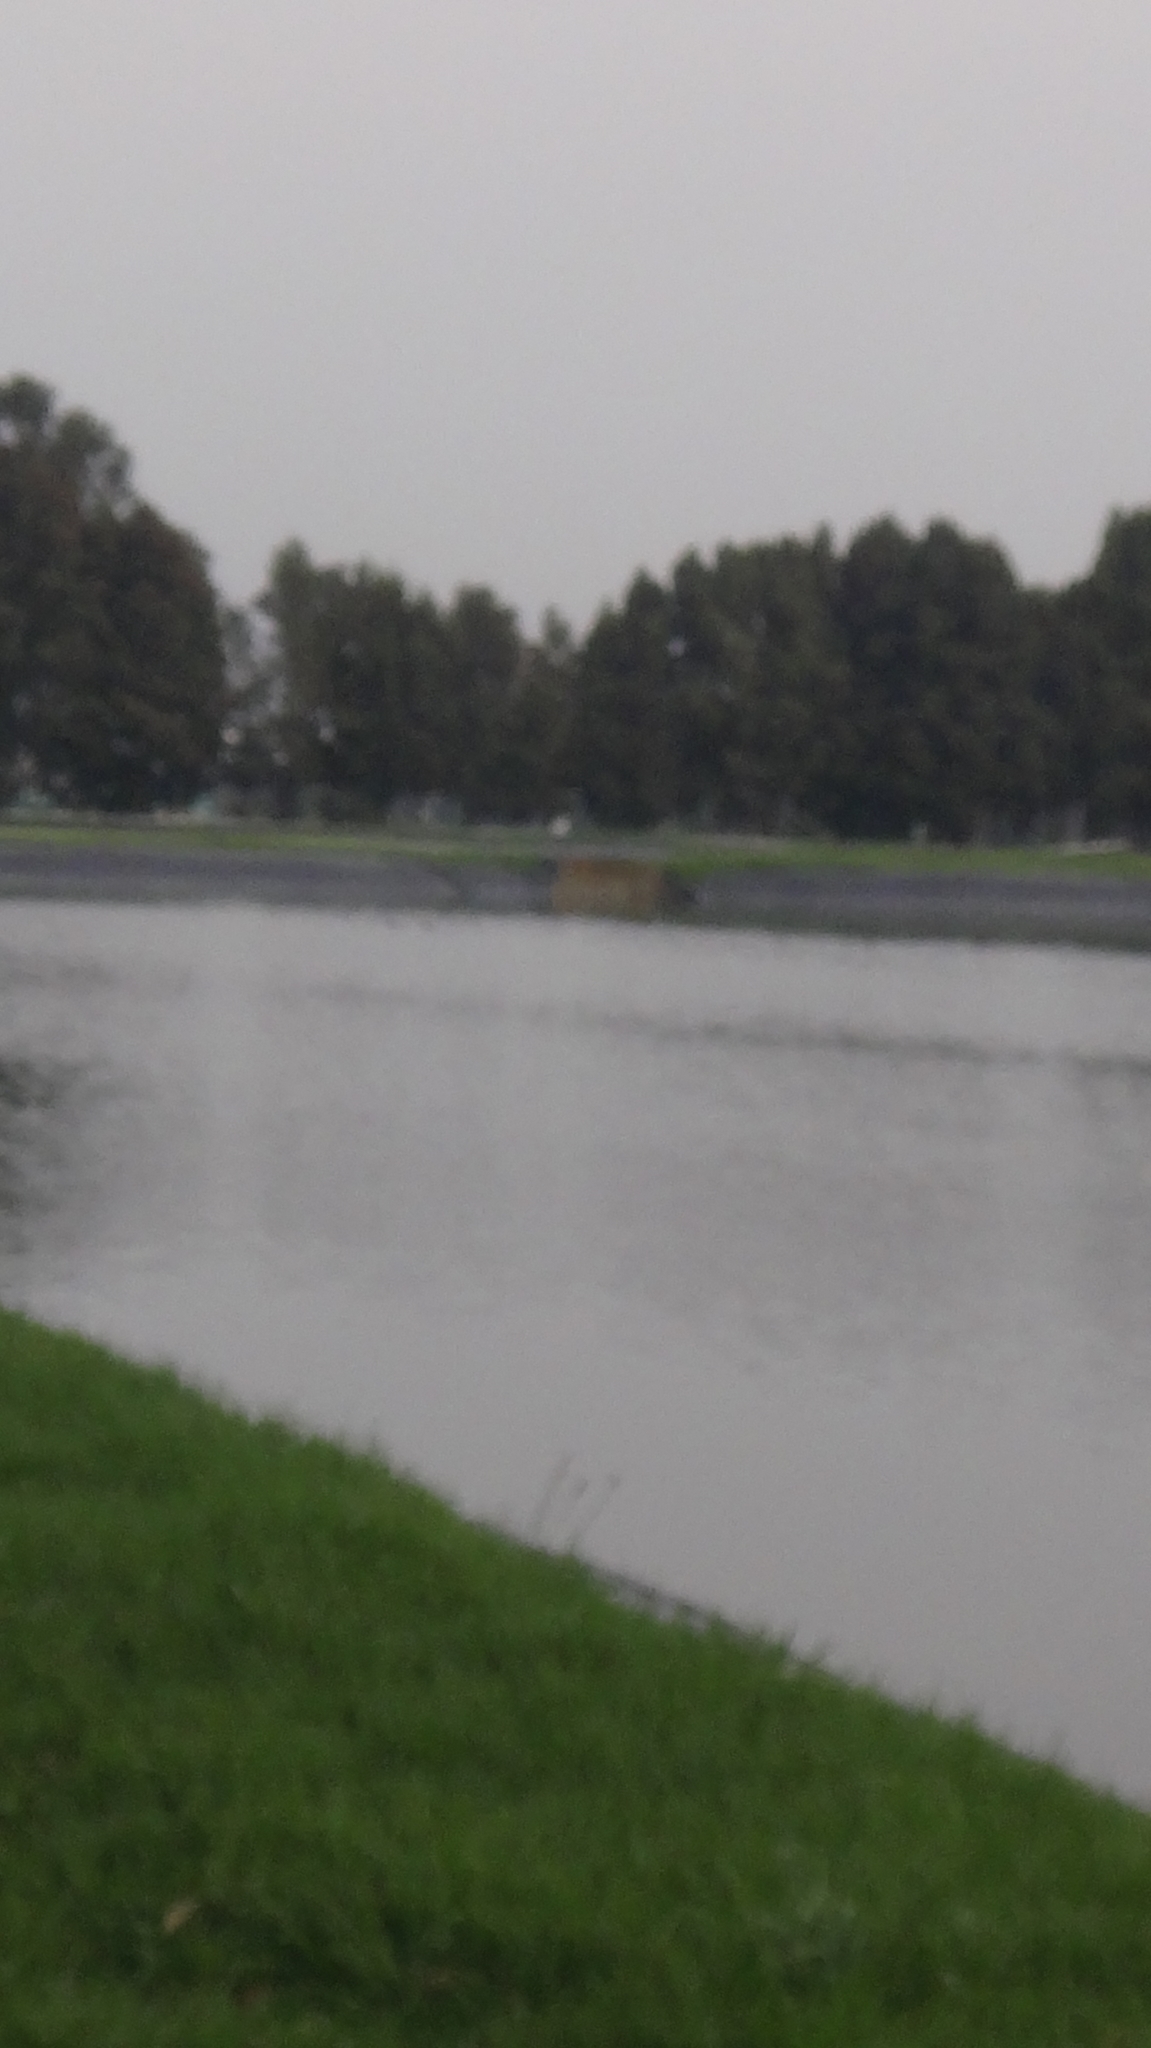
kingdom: Animalia
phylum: Chordata
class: Aves
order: Anseriformes
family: Anatidae
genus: Oxyura
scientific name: Oxyura ferruginea
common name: Andean duck
